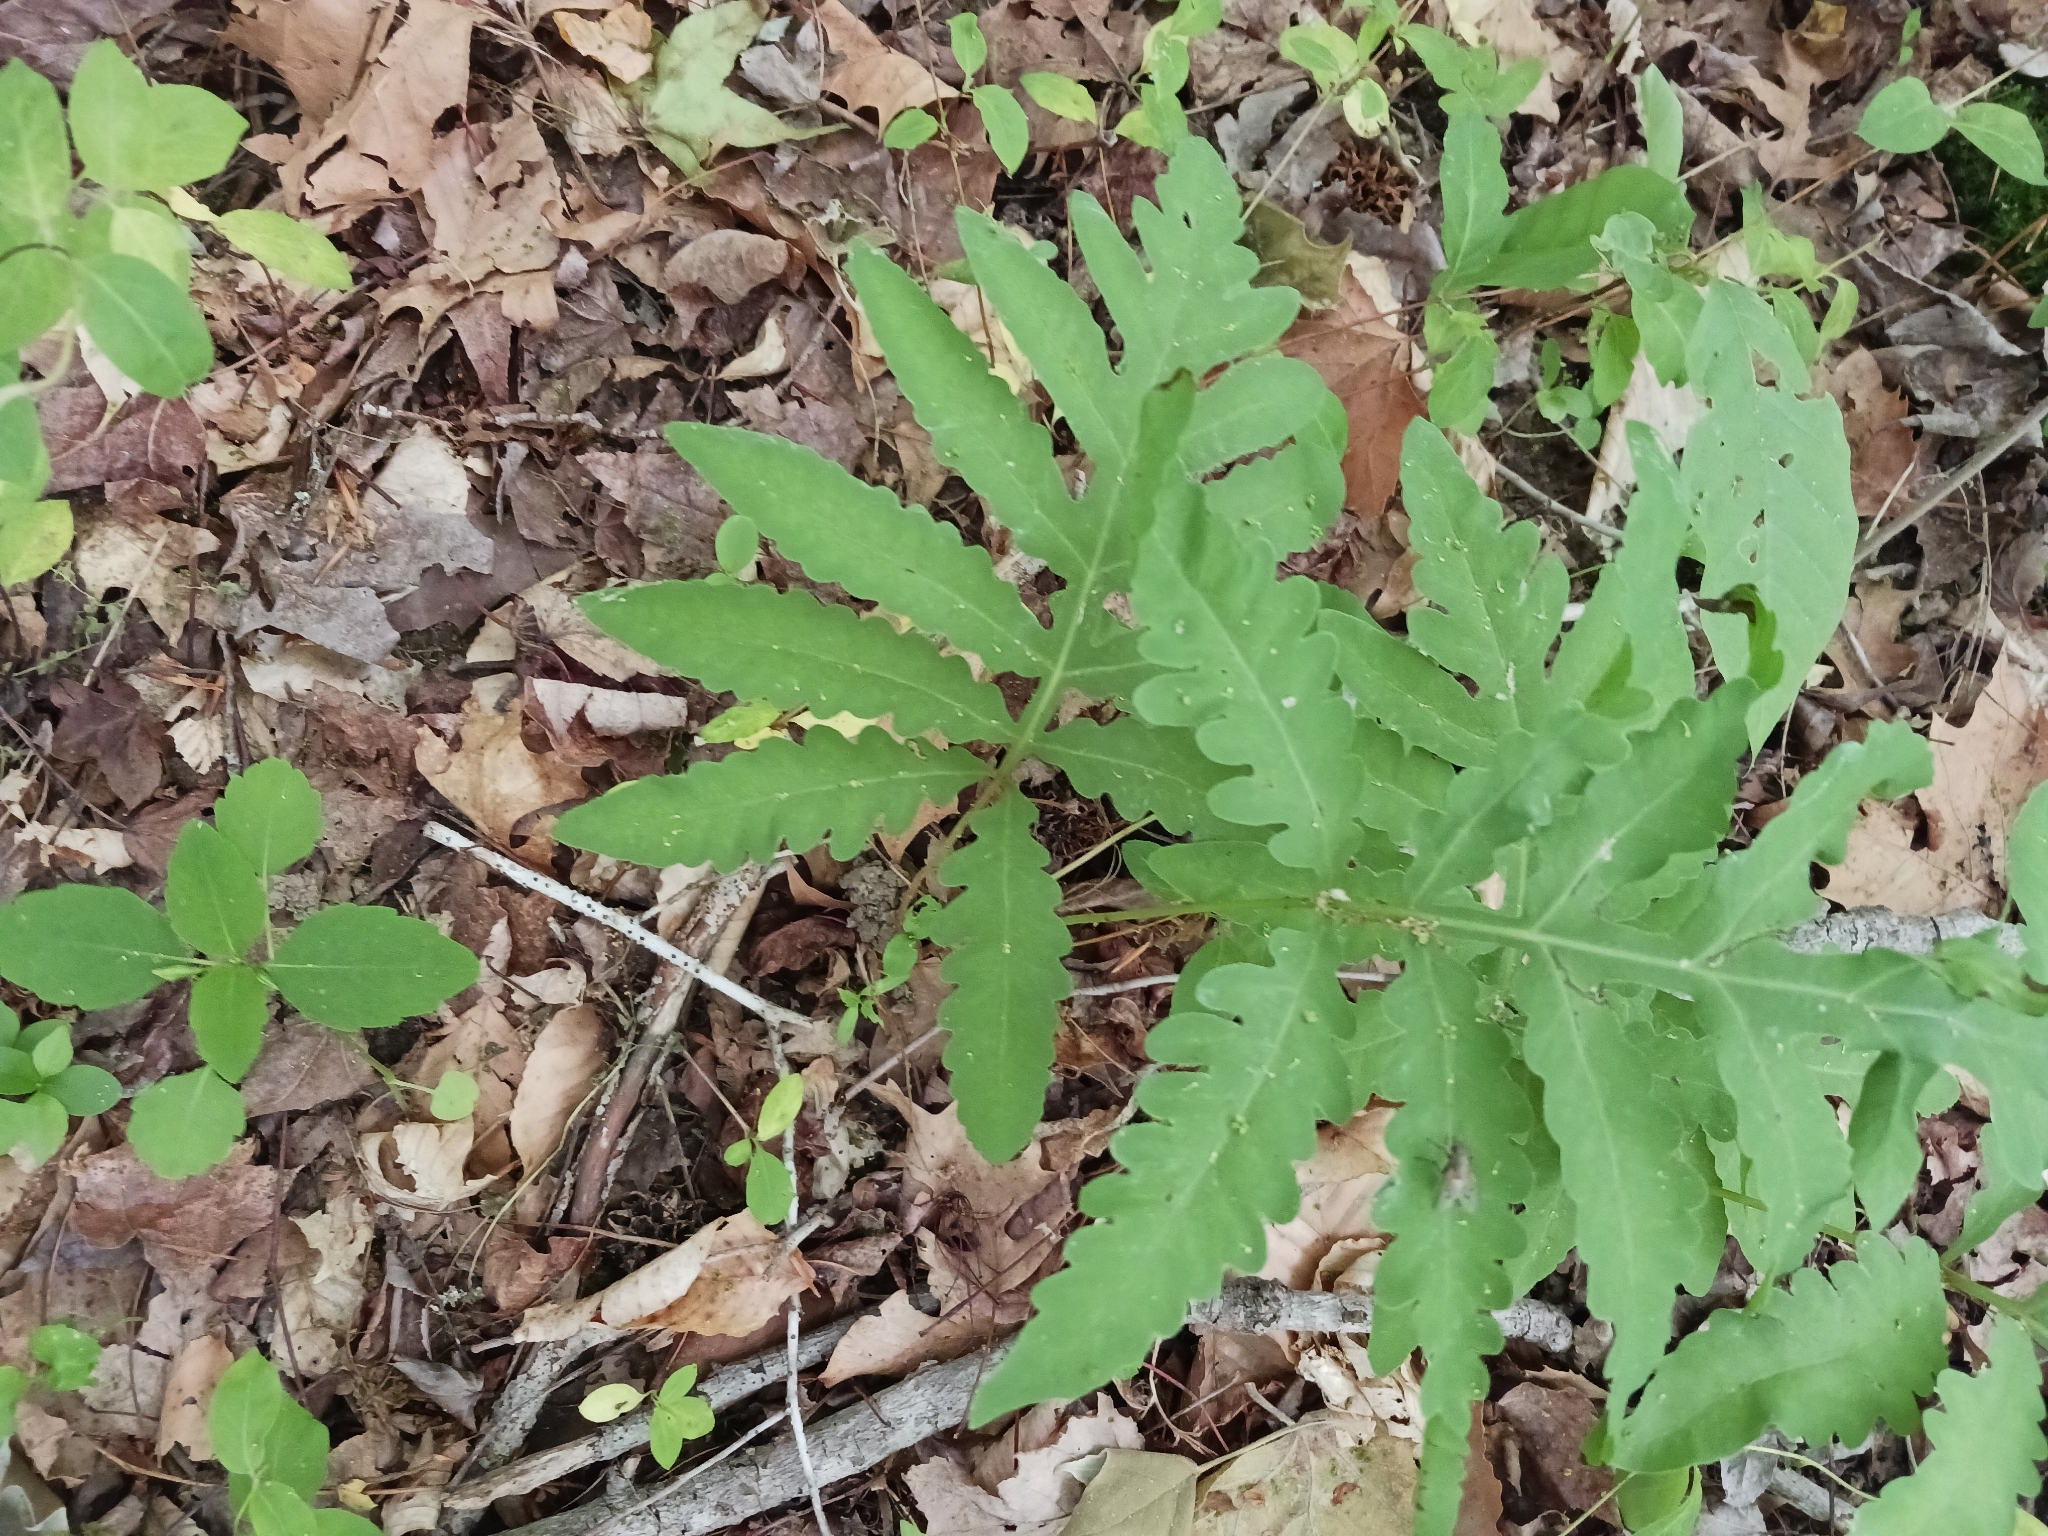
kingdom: Plantae
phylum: Tracheophyta
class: Polypodiopsida
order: Polypodiales
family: Onocleaceae
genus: Onoclea
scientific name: Onoclea sensibilis
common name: Sensitive fern
